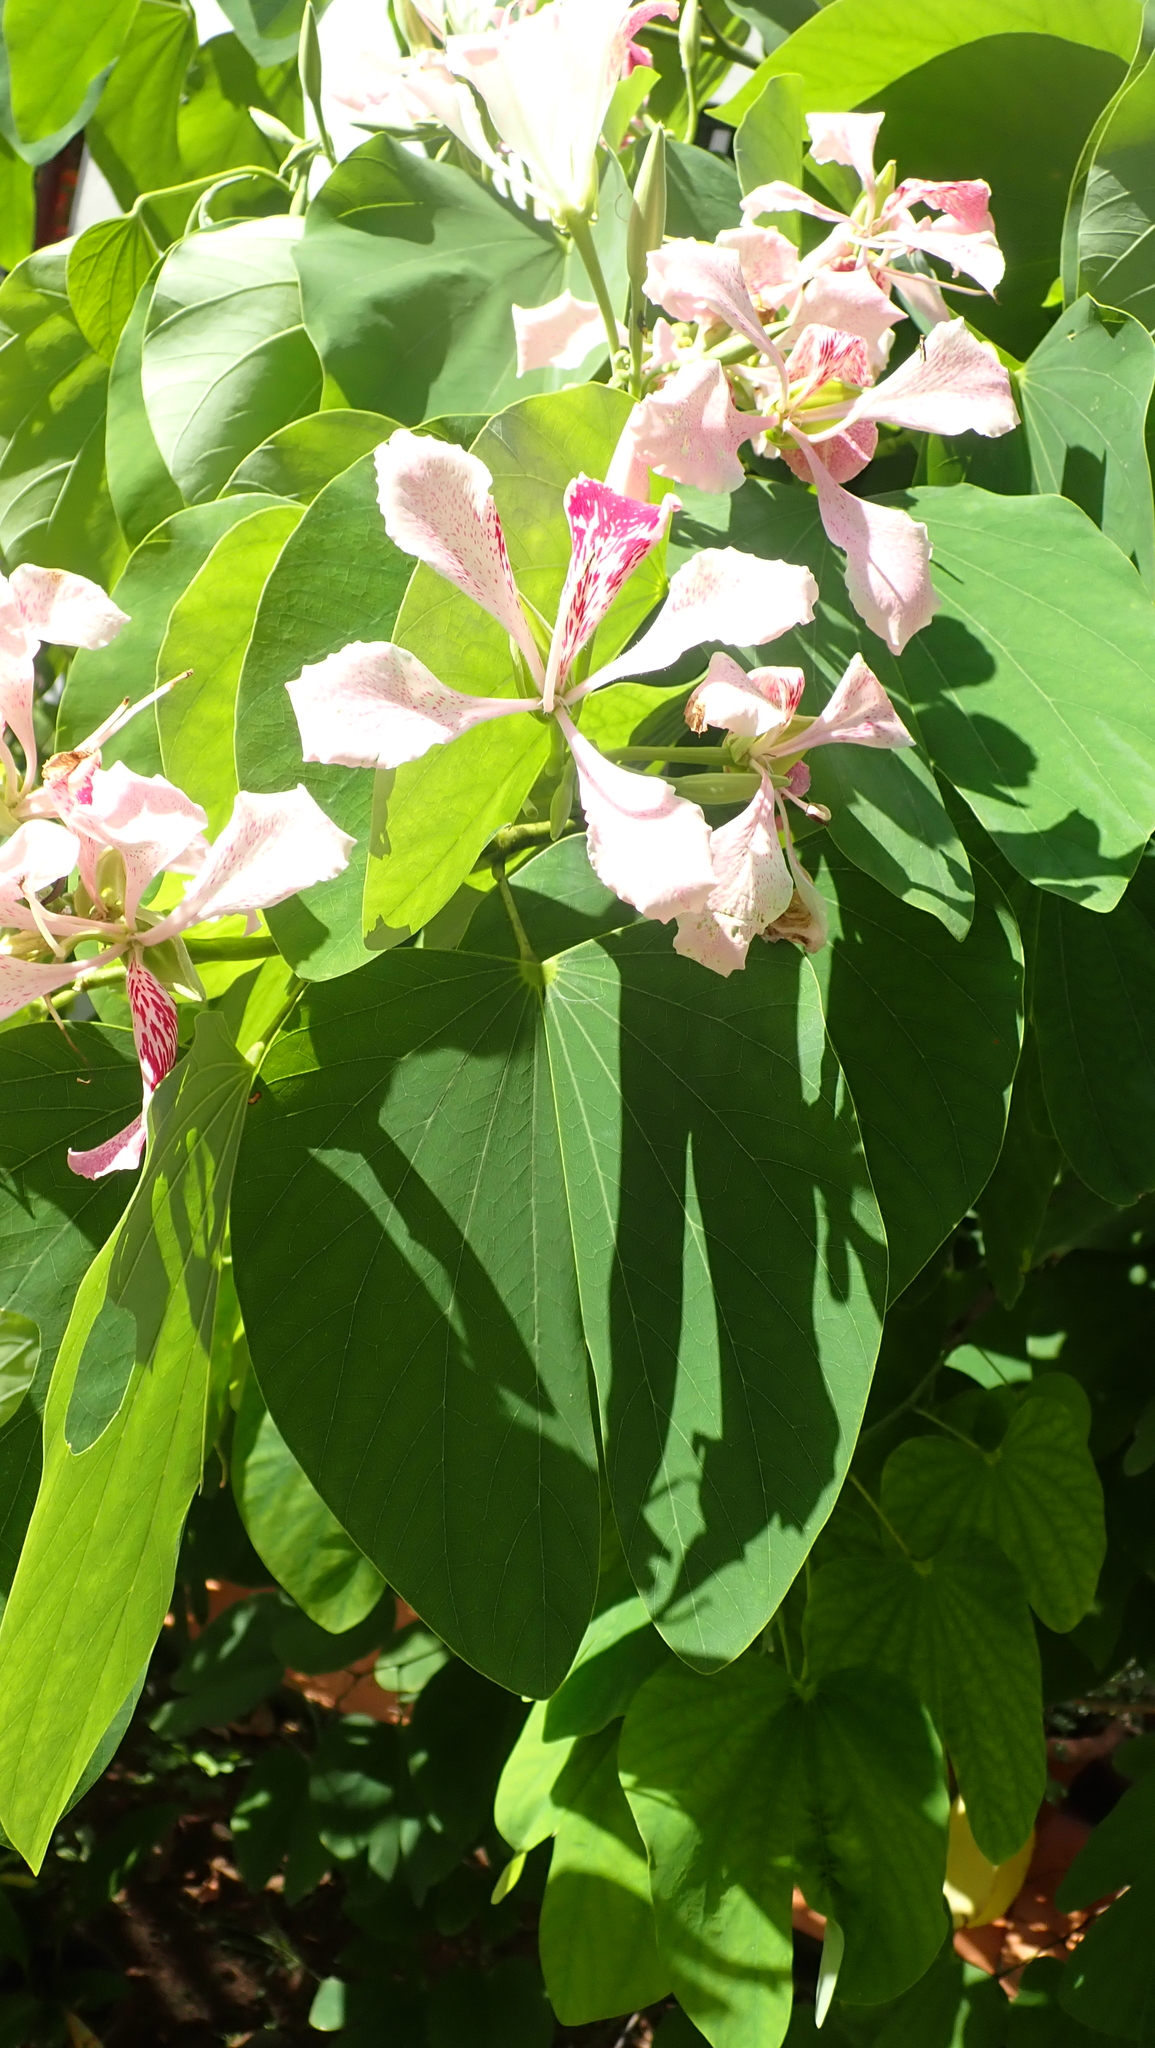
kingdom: Plantae
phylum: Tracheophyta
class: Magnoliopsida
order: Fabales
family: Fabaceae
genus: Bauhinia
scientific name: Bauhinia monandra
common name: Napoleon's plume
